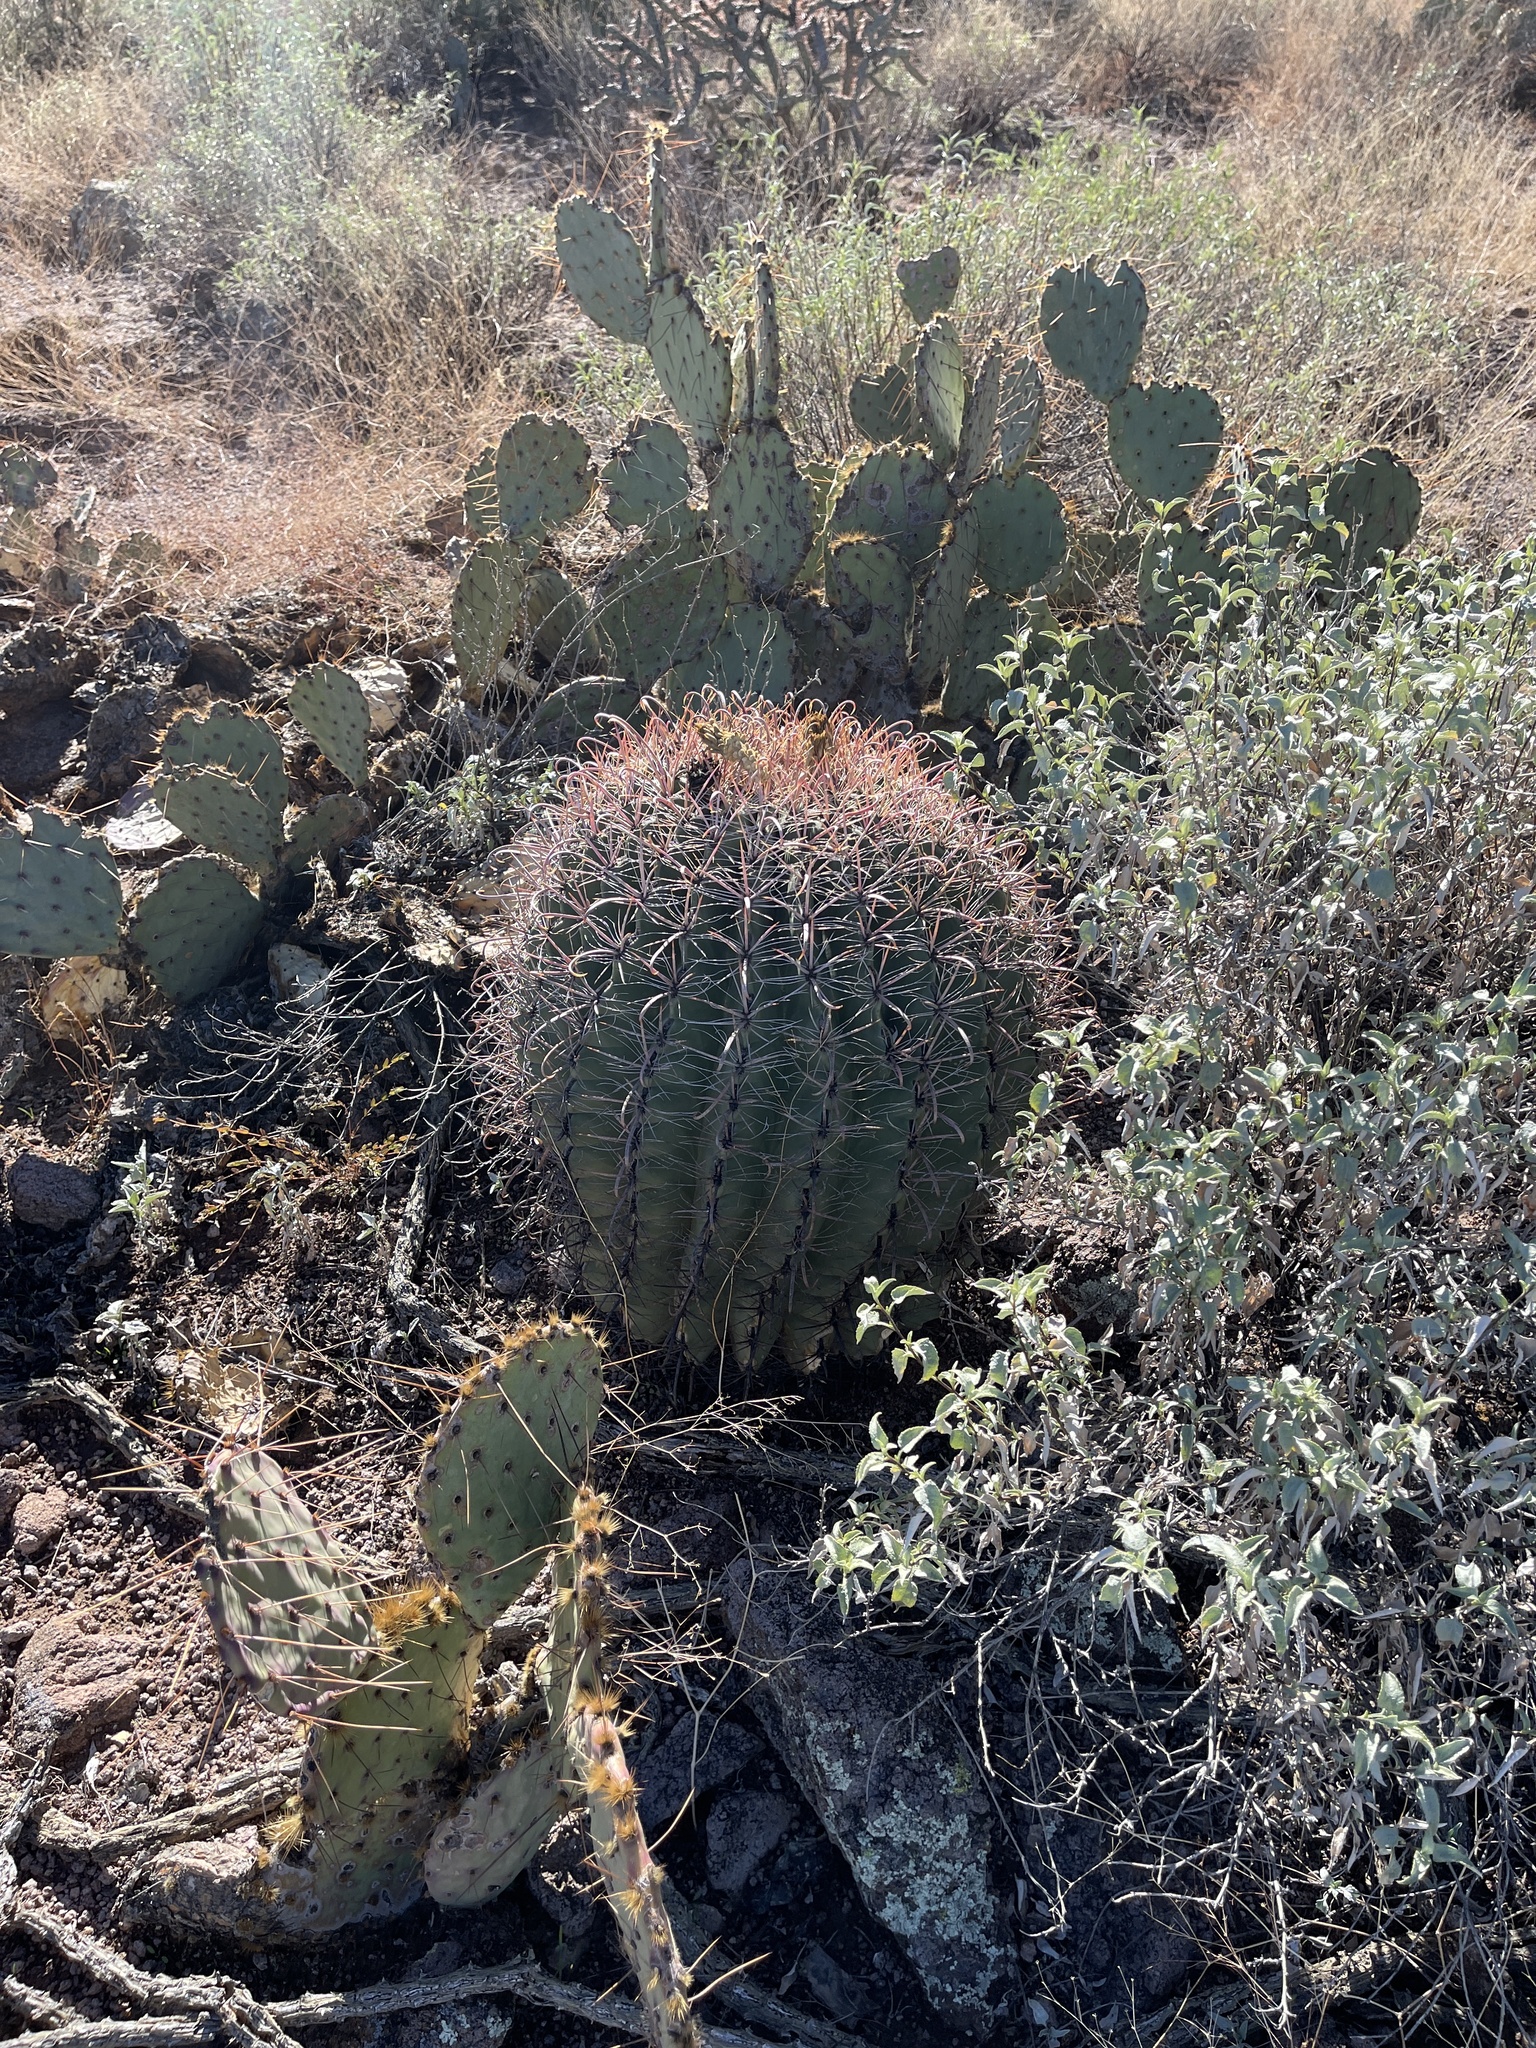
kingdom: Plantae
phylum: Tracheophyta
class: Magnoliopsida
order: Caryophyllales
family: Cactaceae
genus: Ferocactus
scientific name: Ferocactus wislizeni
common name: Candy barrel cactus
